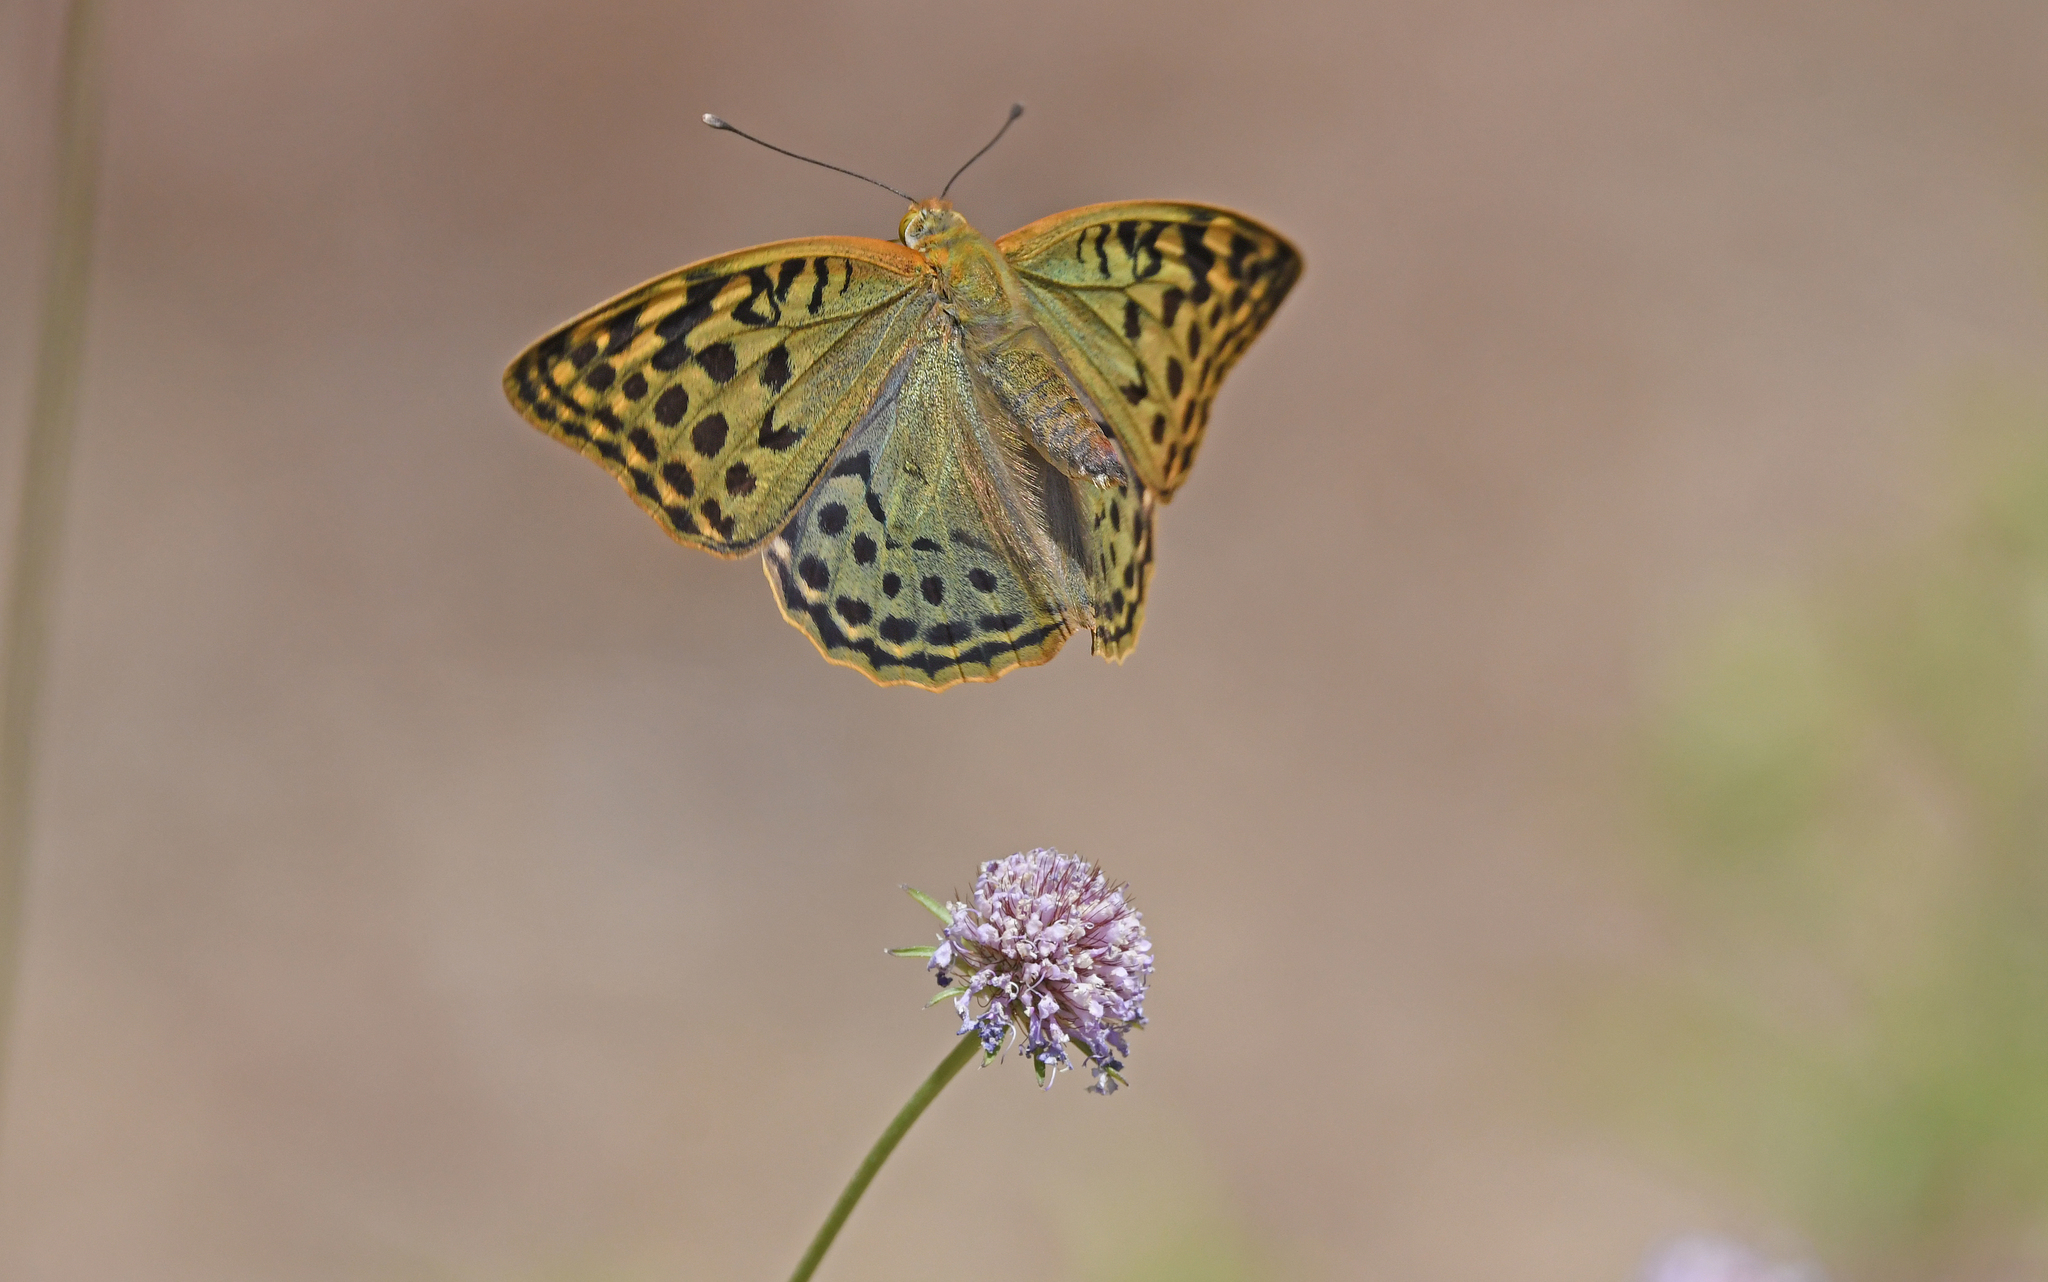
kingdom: Animalia
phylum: Arthropoda
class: Insecta
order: Lepidoptera
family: Nymphalidae
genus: Damora
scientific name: Damora pandora
